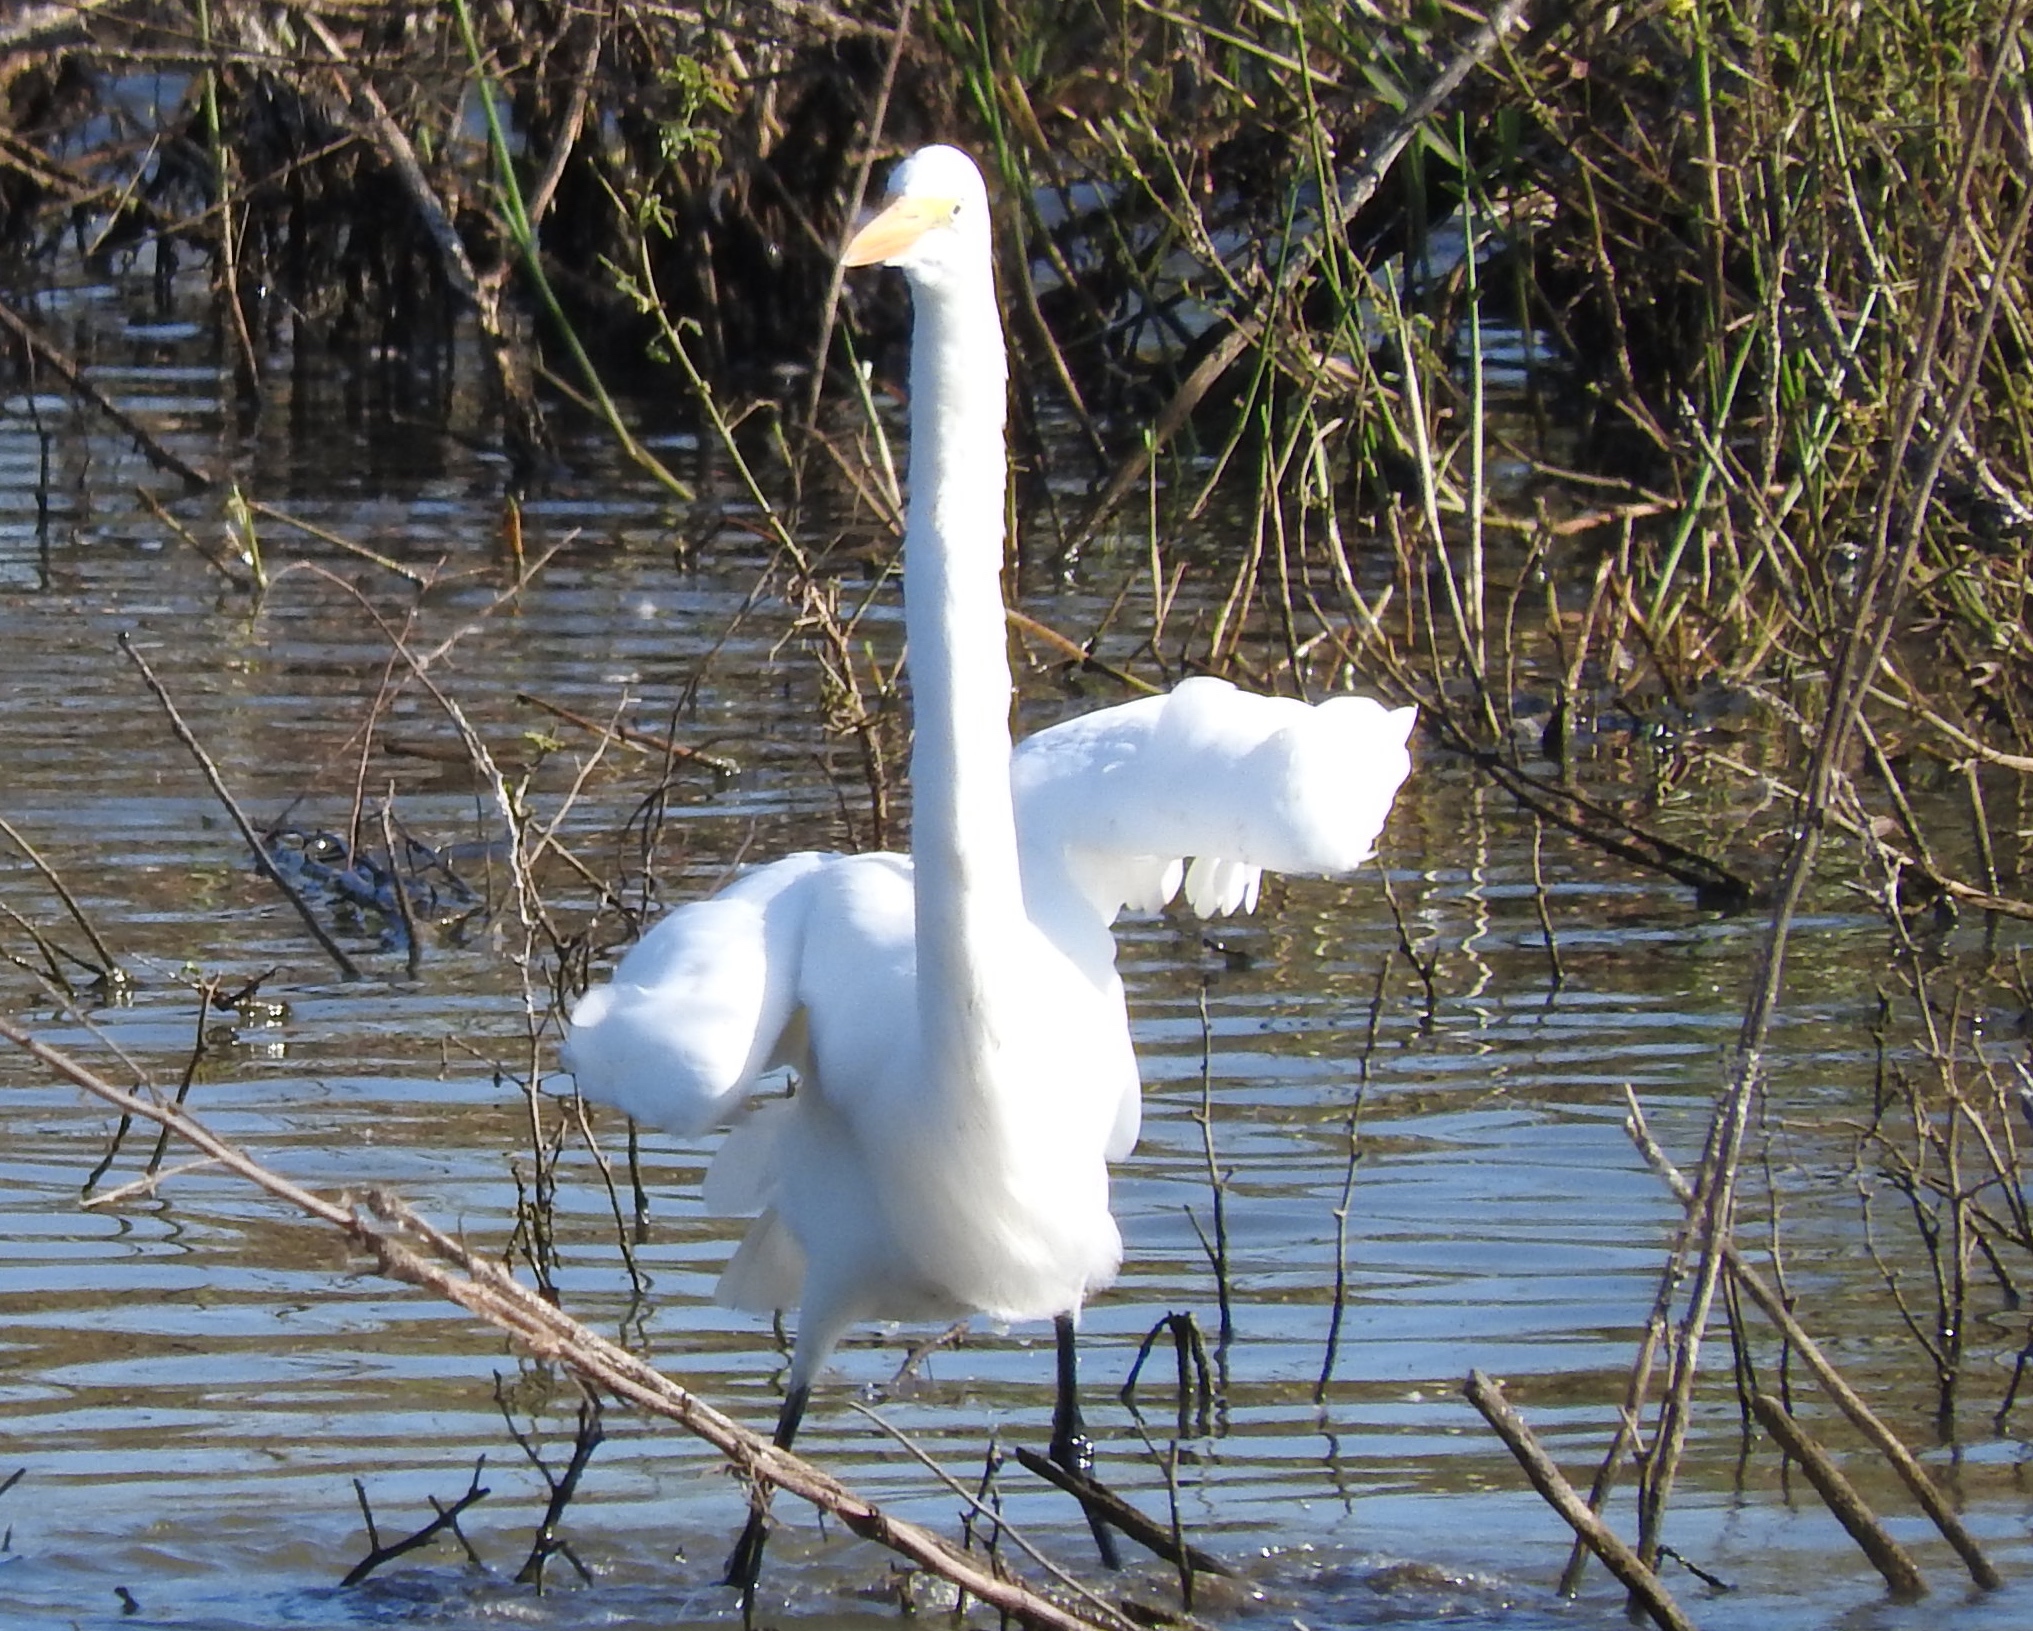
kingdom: Animalia
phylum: Chordata
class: Aves
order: Pelecaniformes
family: Ardeidae
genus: Ardea
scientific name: Ardea alba
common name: Great egret
